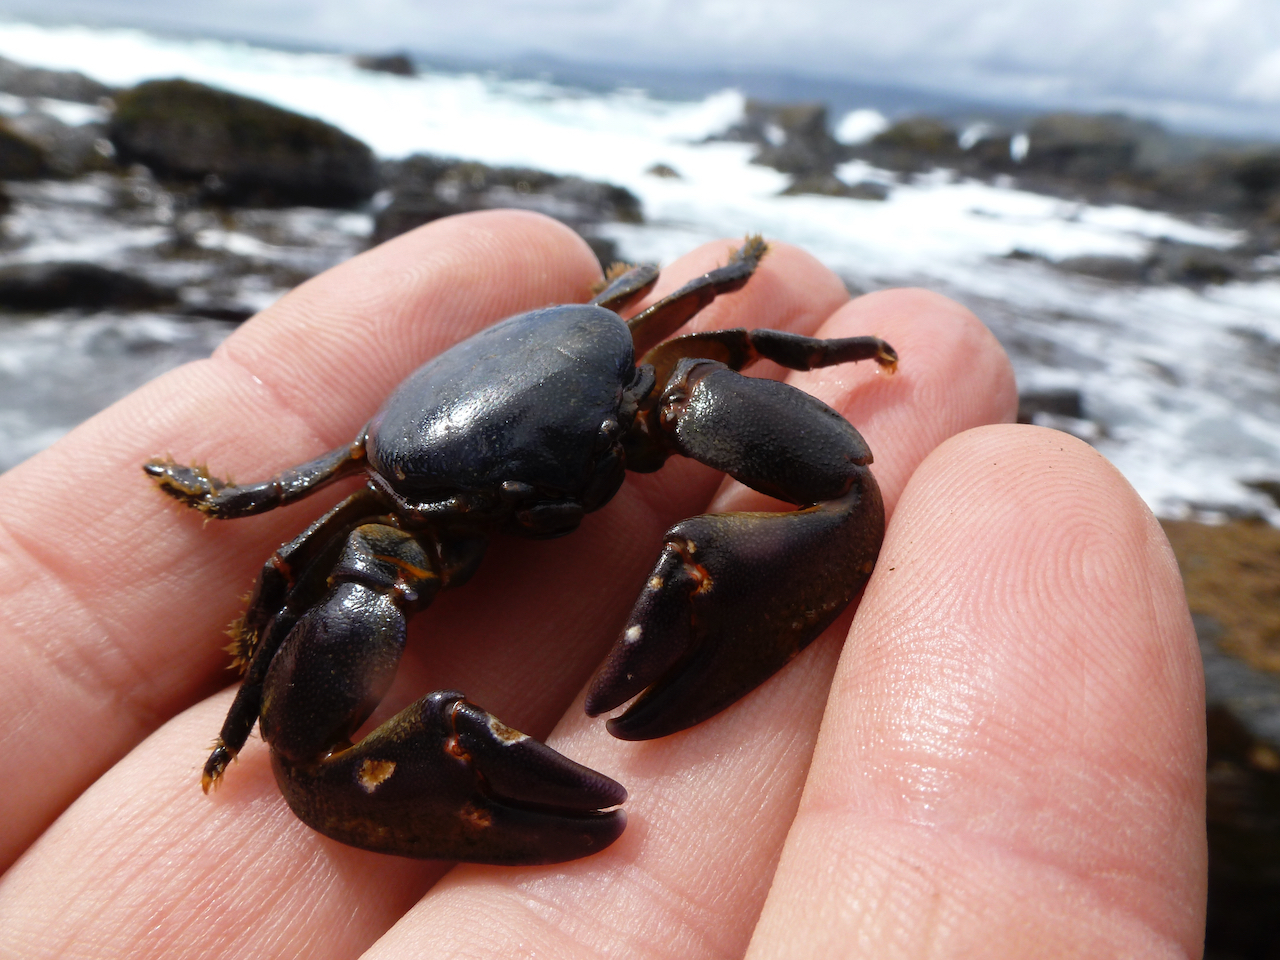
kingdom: Animalia
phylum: Arthropoda
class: Malacostraca
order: Decapoda
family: Porcellanidae
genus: Petrolisthes
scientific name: Petrolisthes laevigatus
